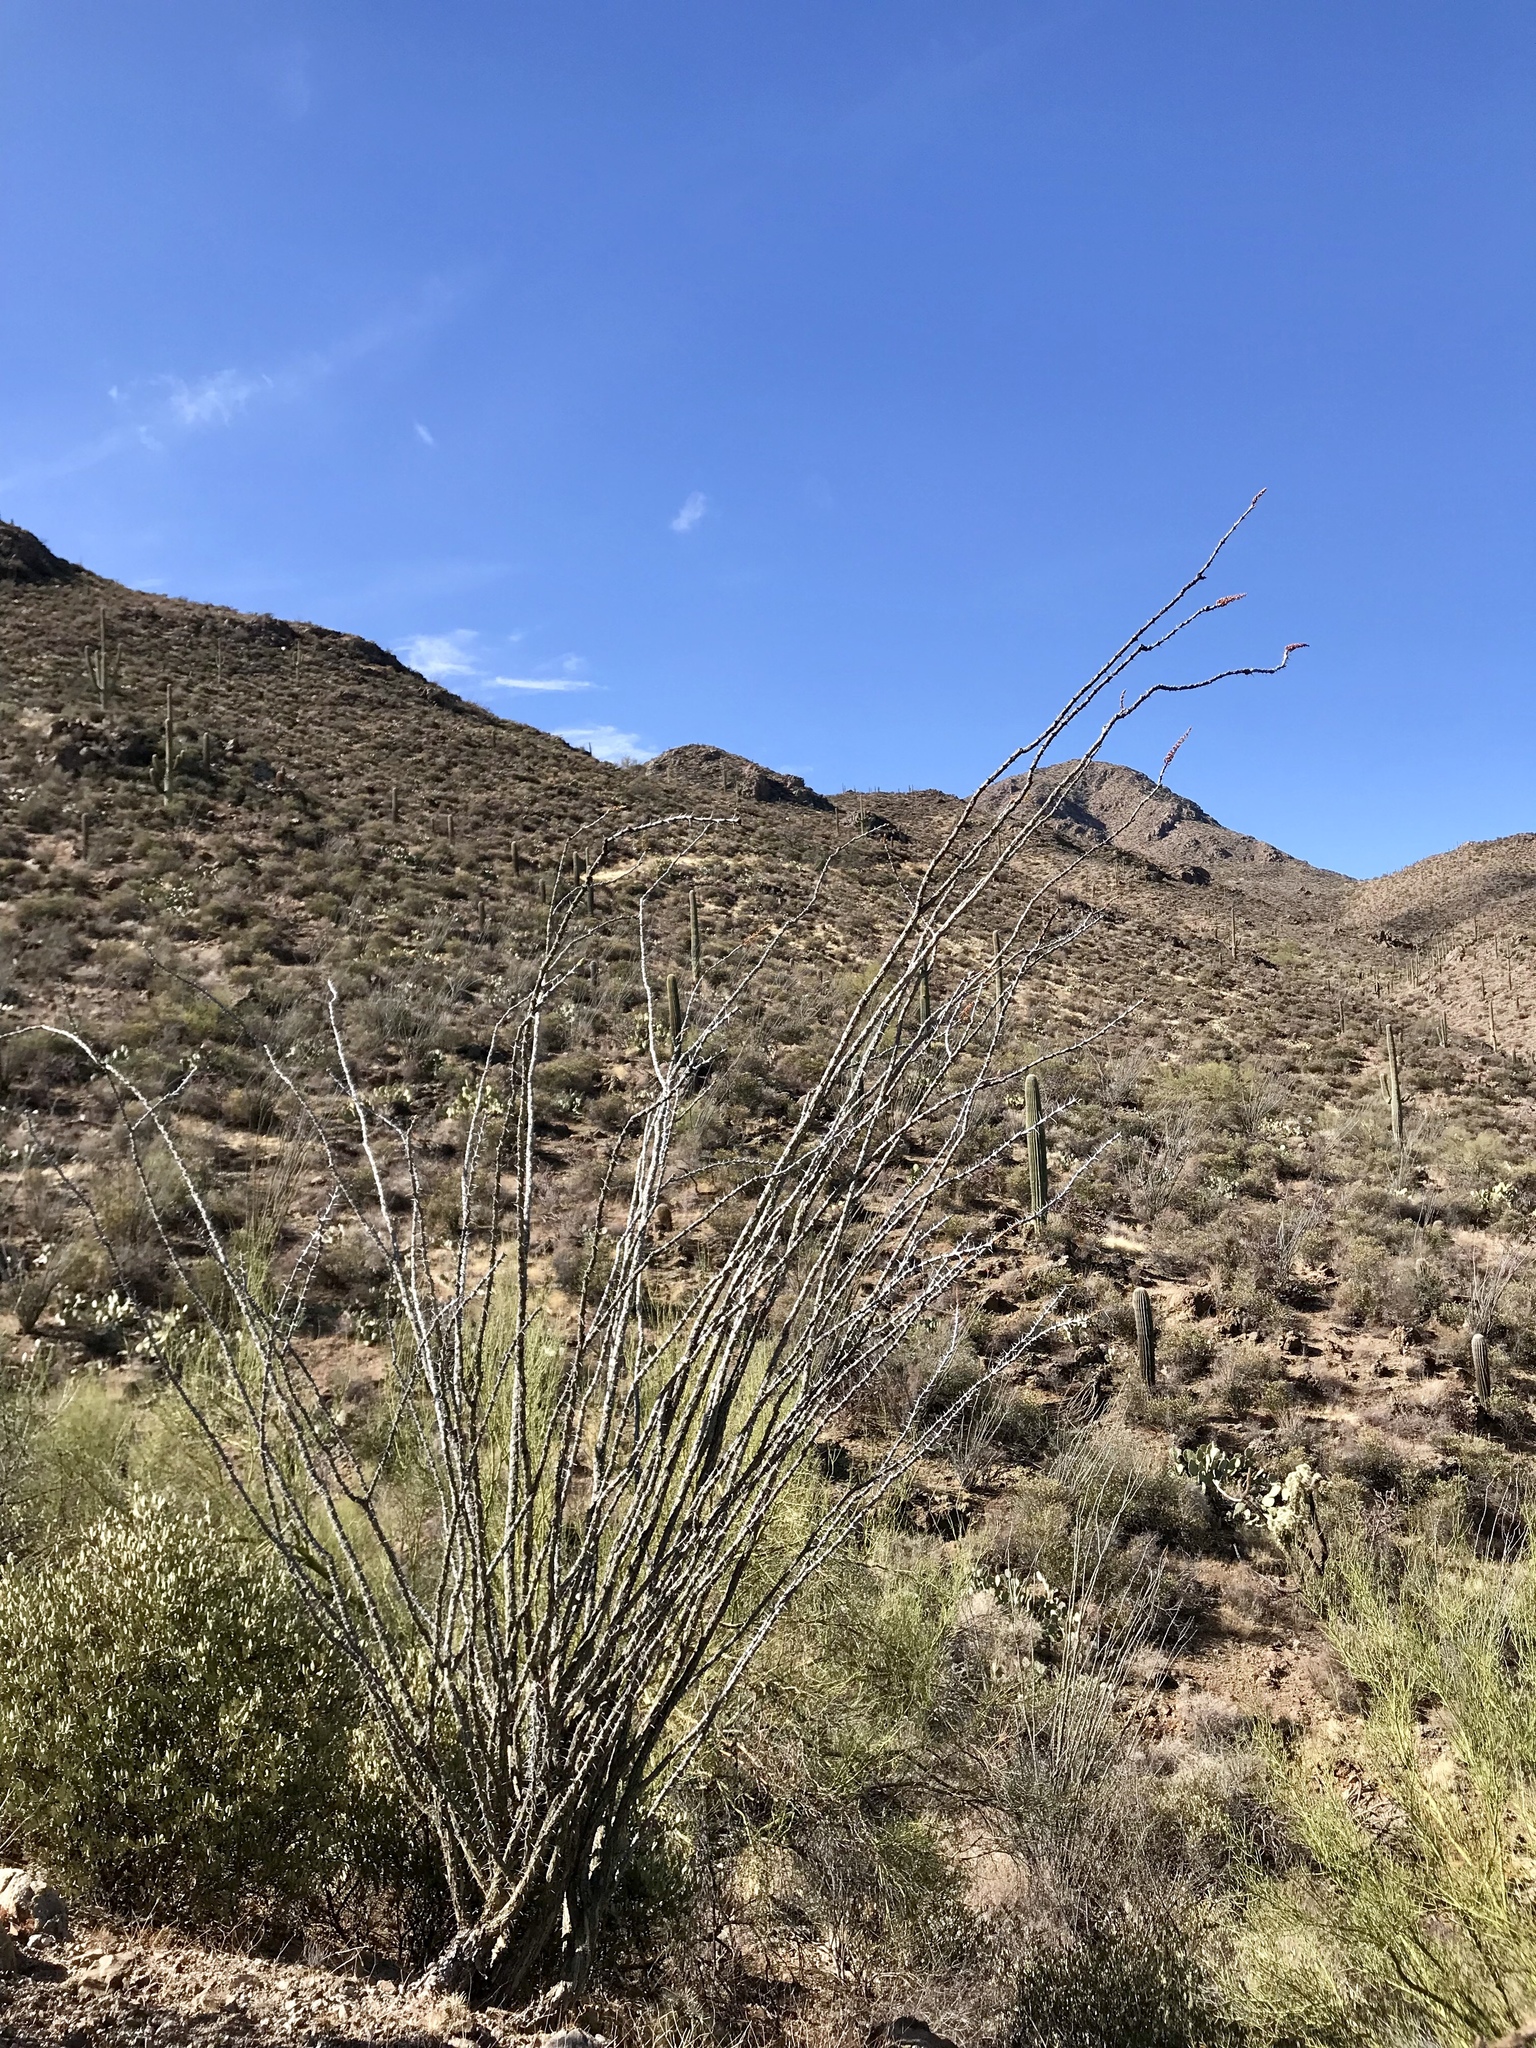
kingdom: Plantae
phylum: Tracheophyta
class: Magnoliopsida
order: Ericales
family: Fouquieriaceae
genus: Fouquieria
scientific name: Fouquieria splendens
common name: Vine-cactus
